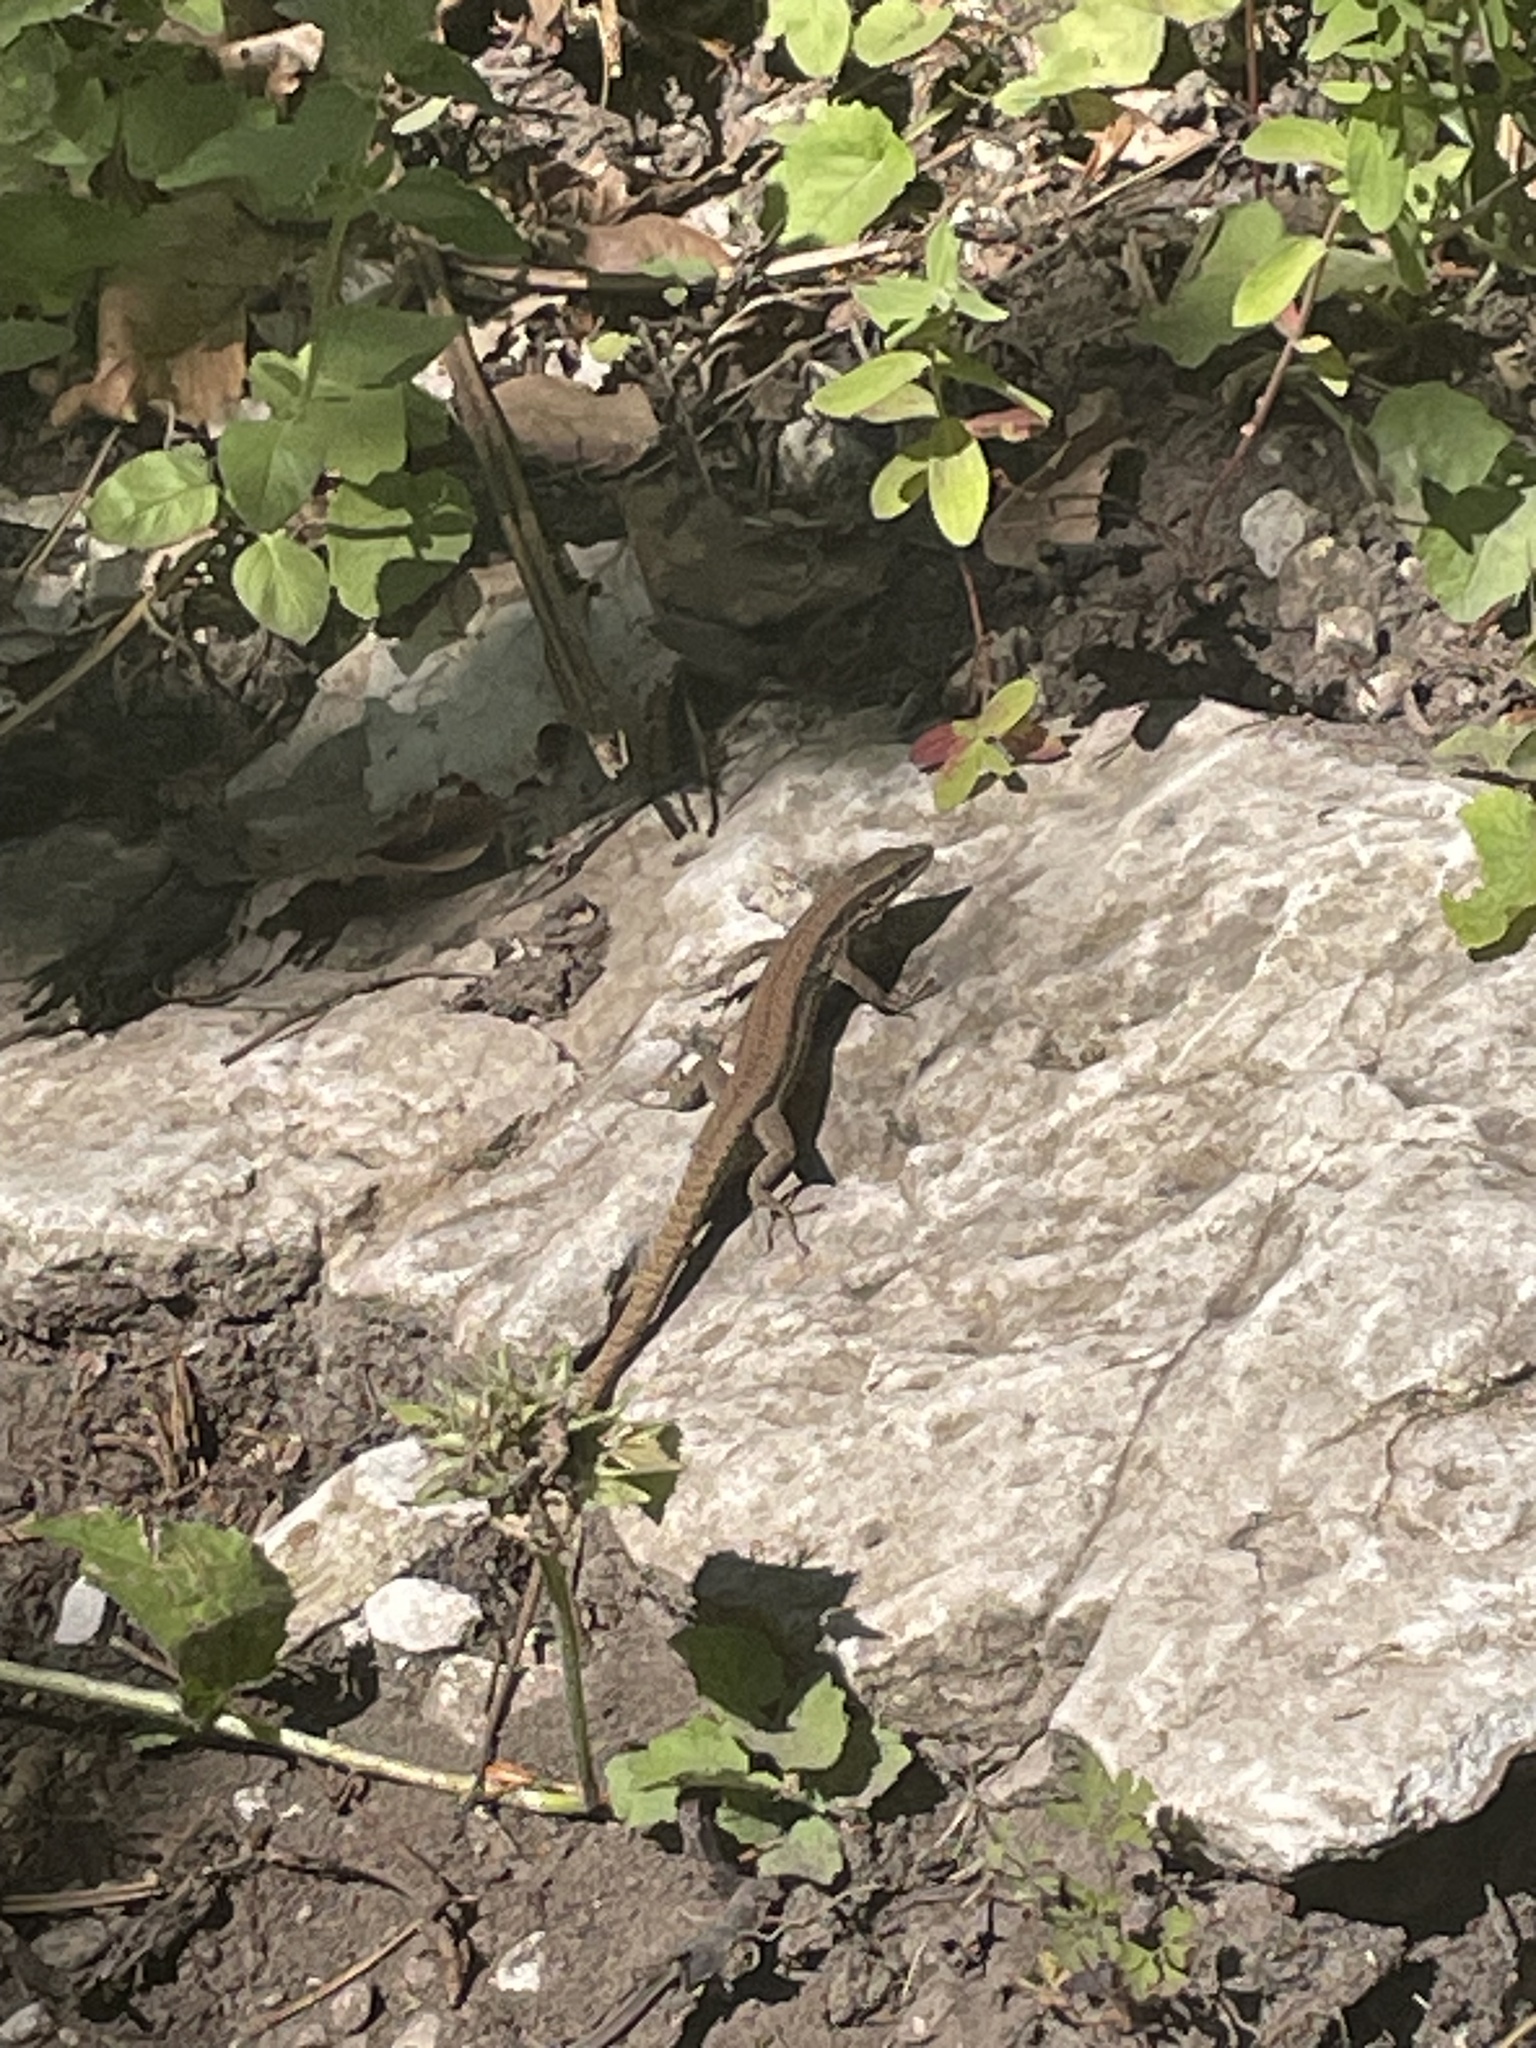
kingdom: Animalia
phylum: Chordata
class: Squamata
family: Lacertidae
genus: Podarcis
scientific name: Podarcis muralis
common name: Common wall lizard
